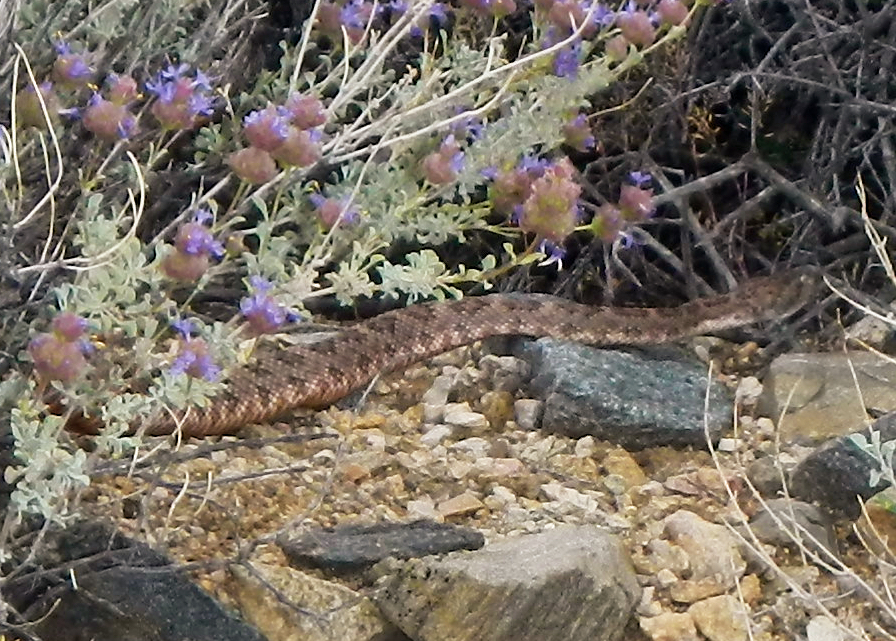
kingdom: Animalia
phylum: Chordata
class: Squamata
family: Viperidae
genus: Crotalus
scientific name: Crotalus pyrrhus
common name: Southwestern speckled rattlesnake
